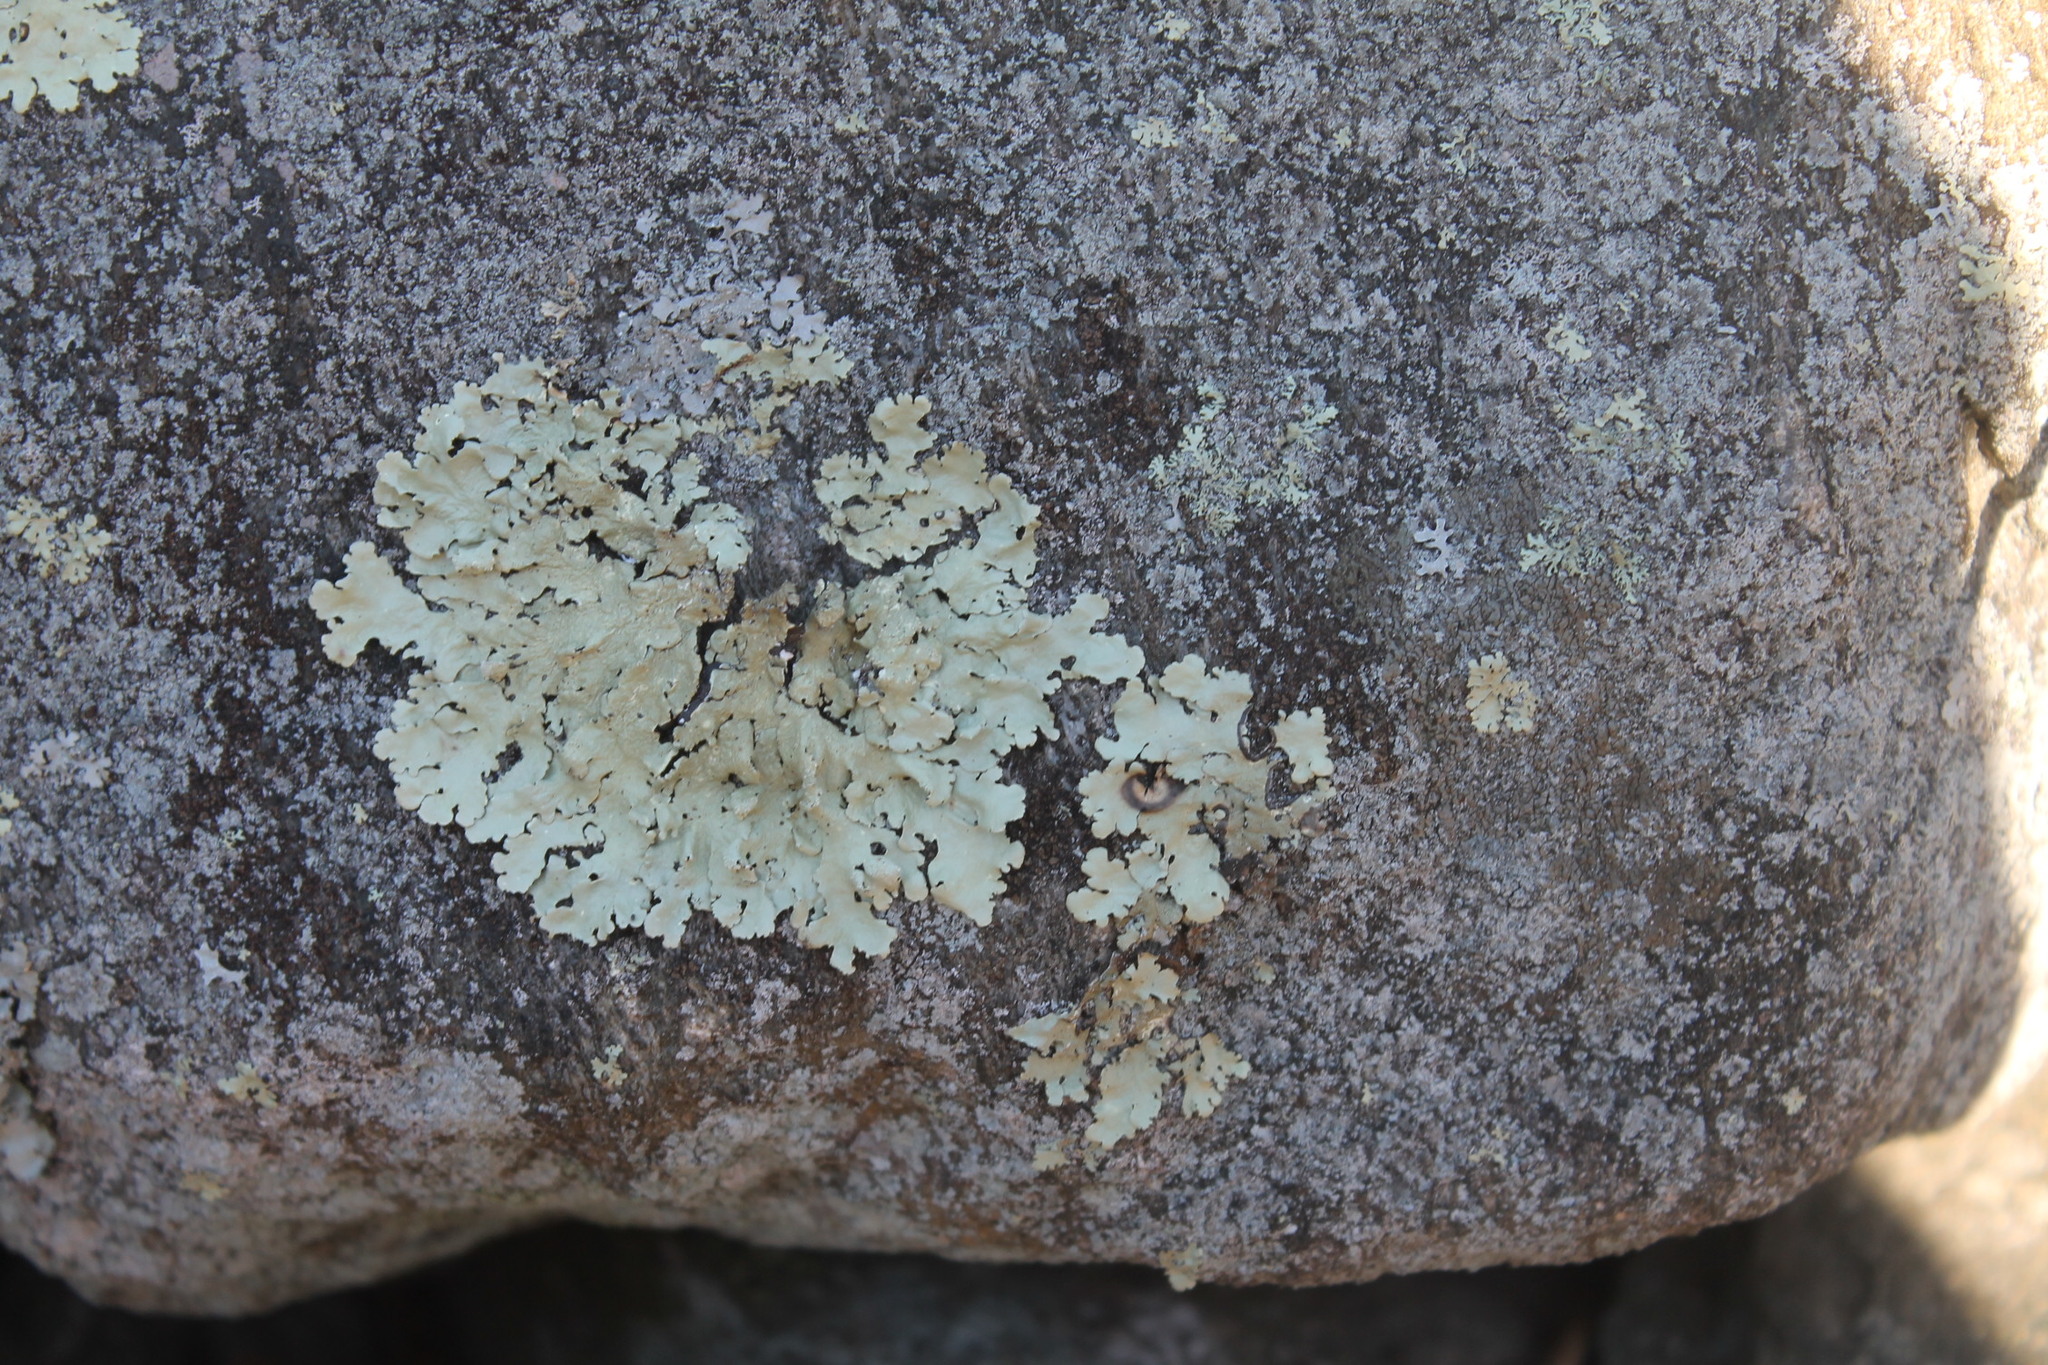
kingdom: Fungi
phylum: Ascomycota
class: Lecanoromycetes
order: Lecanorales
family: Parmeliaceae
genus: Flavoparmelia
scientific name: Flavoparmelia baltimorensis
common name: Rock greenshield
